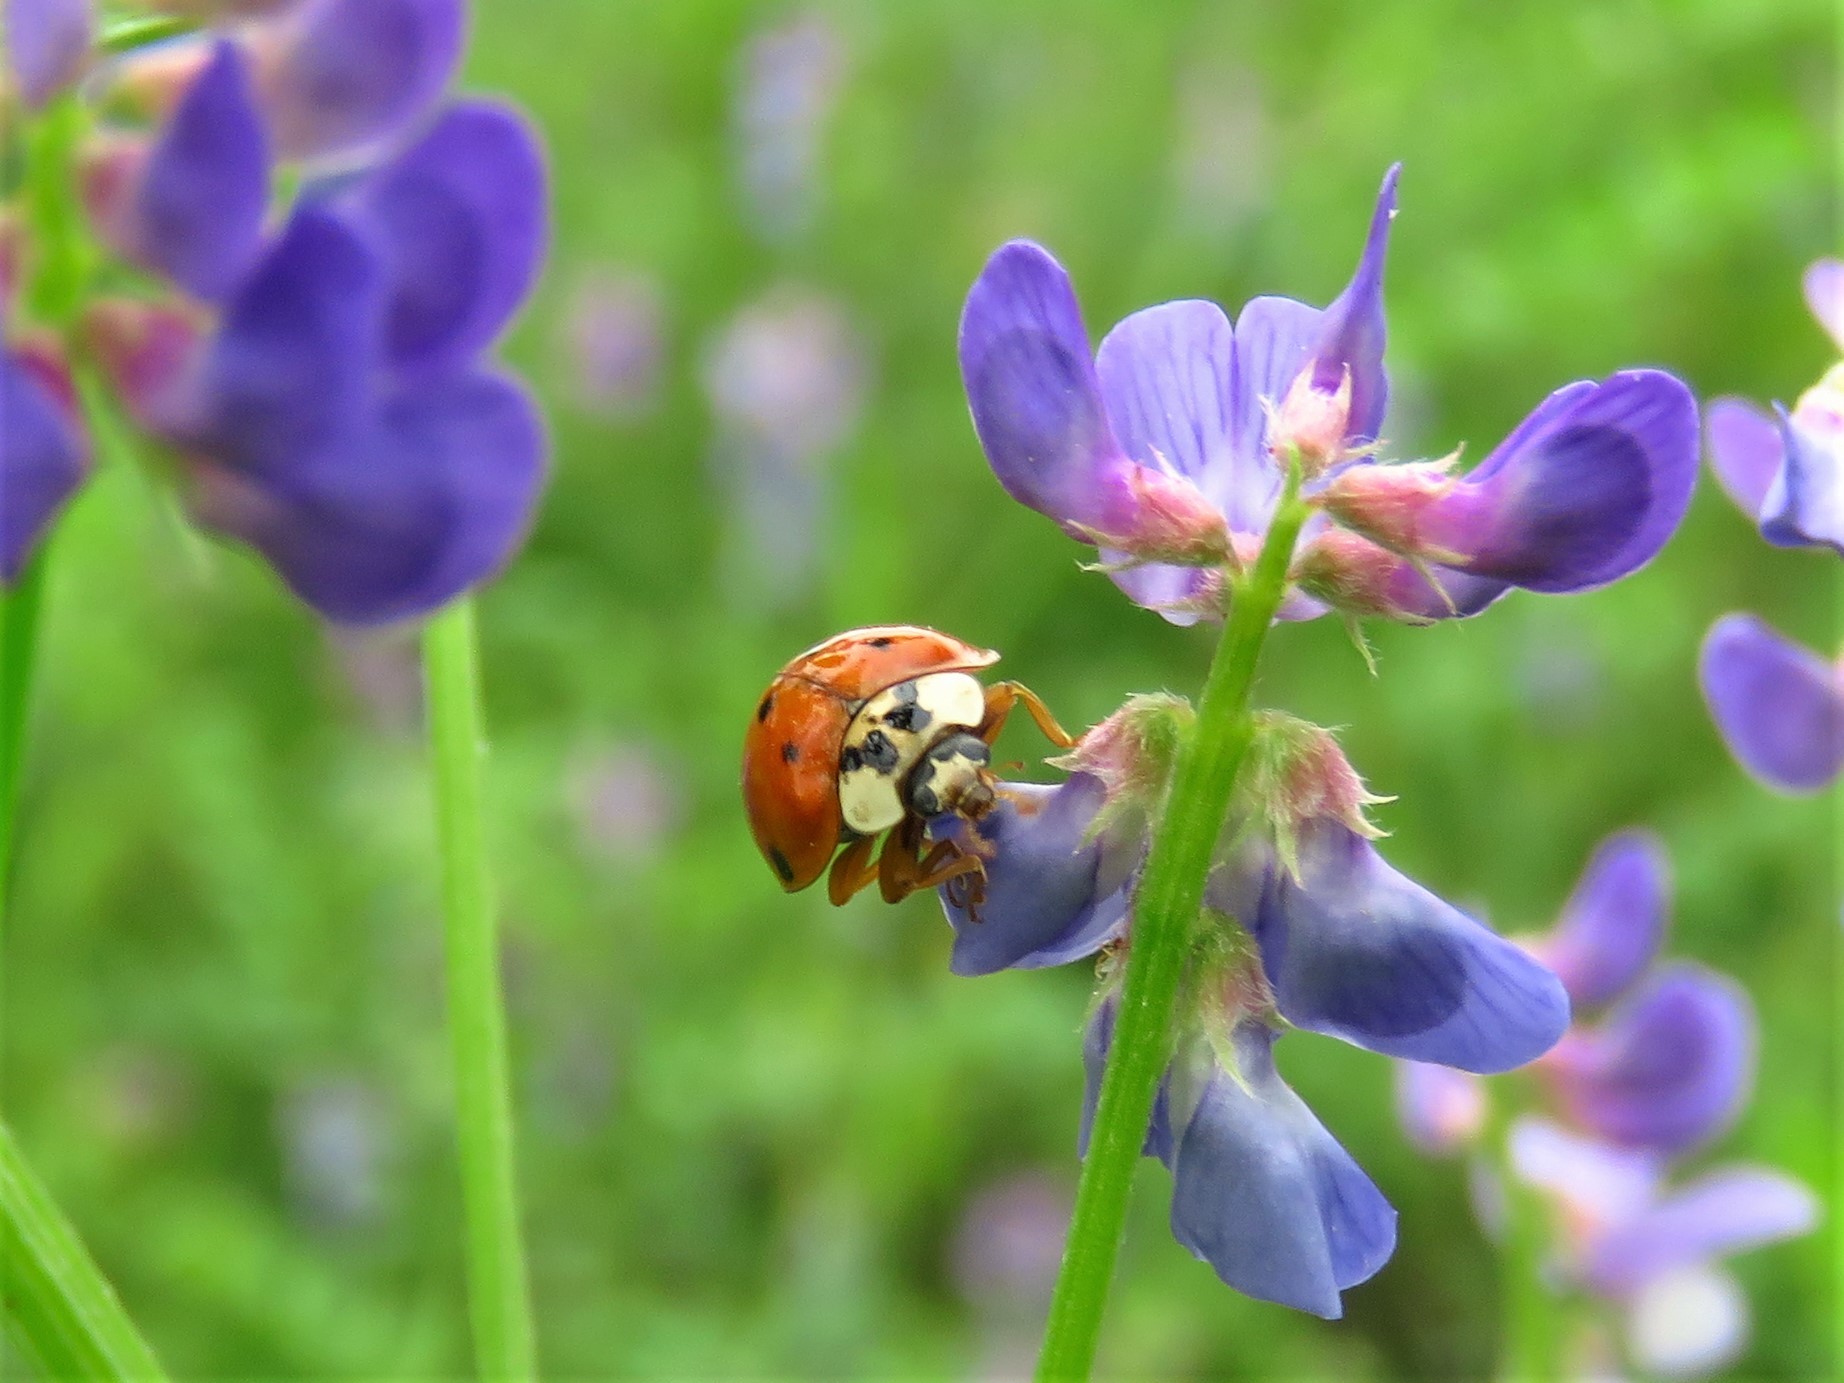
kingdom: Animalia
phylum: Arthropoda
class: Insecta
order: Coleoptera
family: Coccinellidae
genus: Harmonia
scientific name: Harmonia axyridis
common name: Harlequin ladybird
